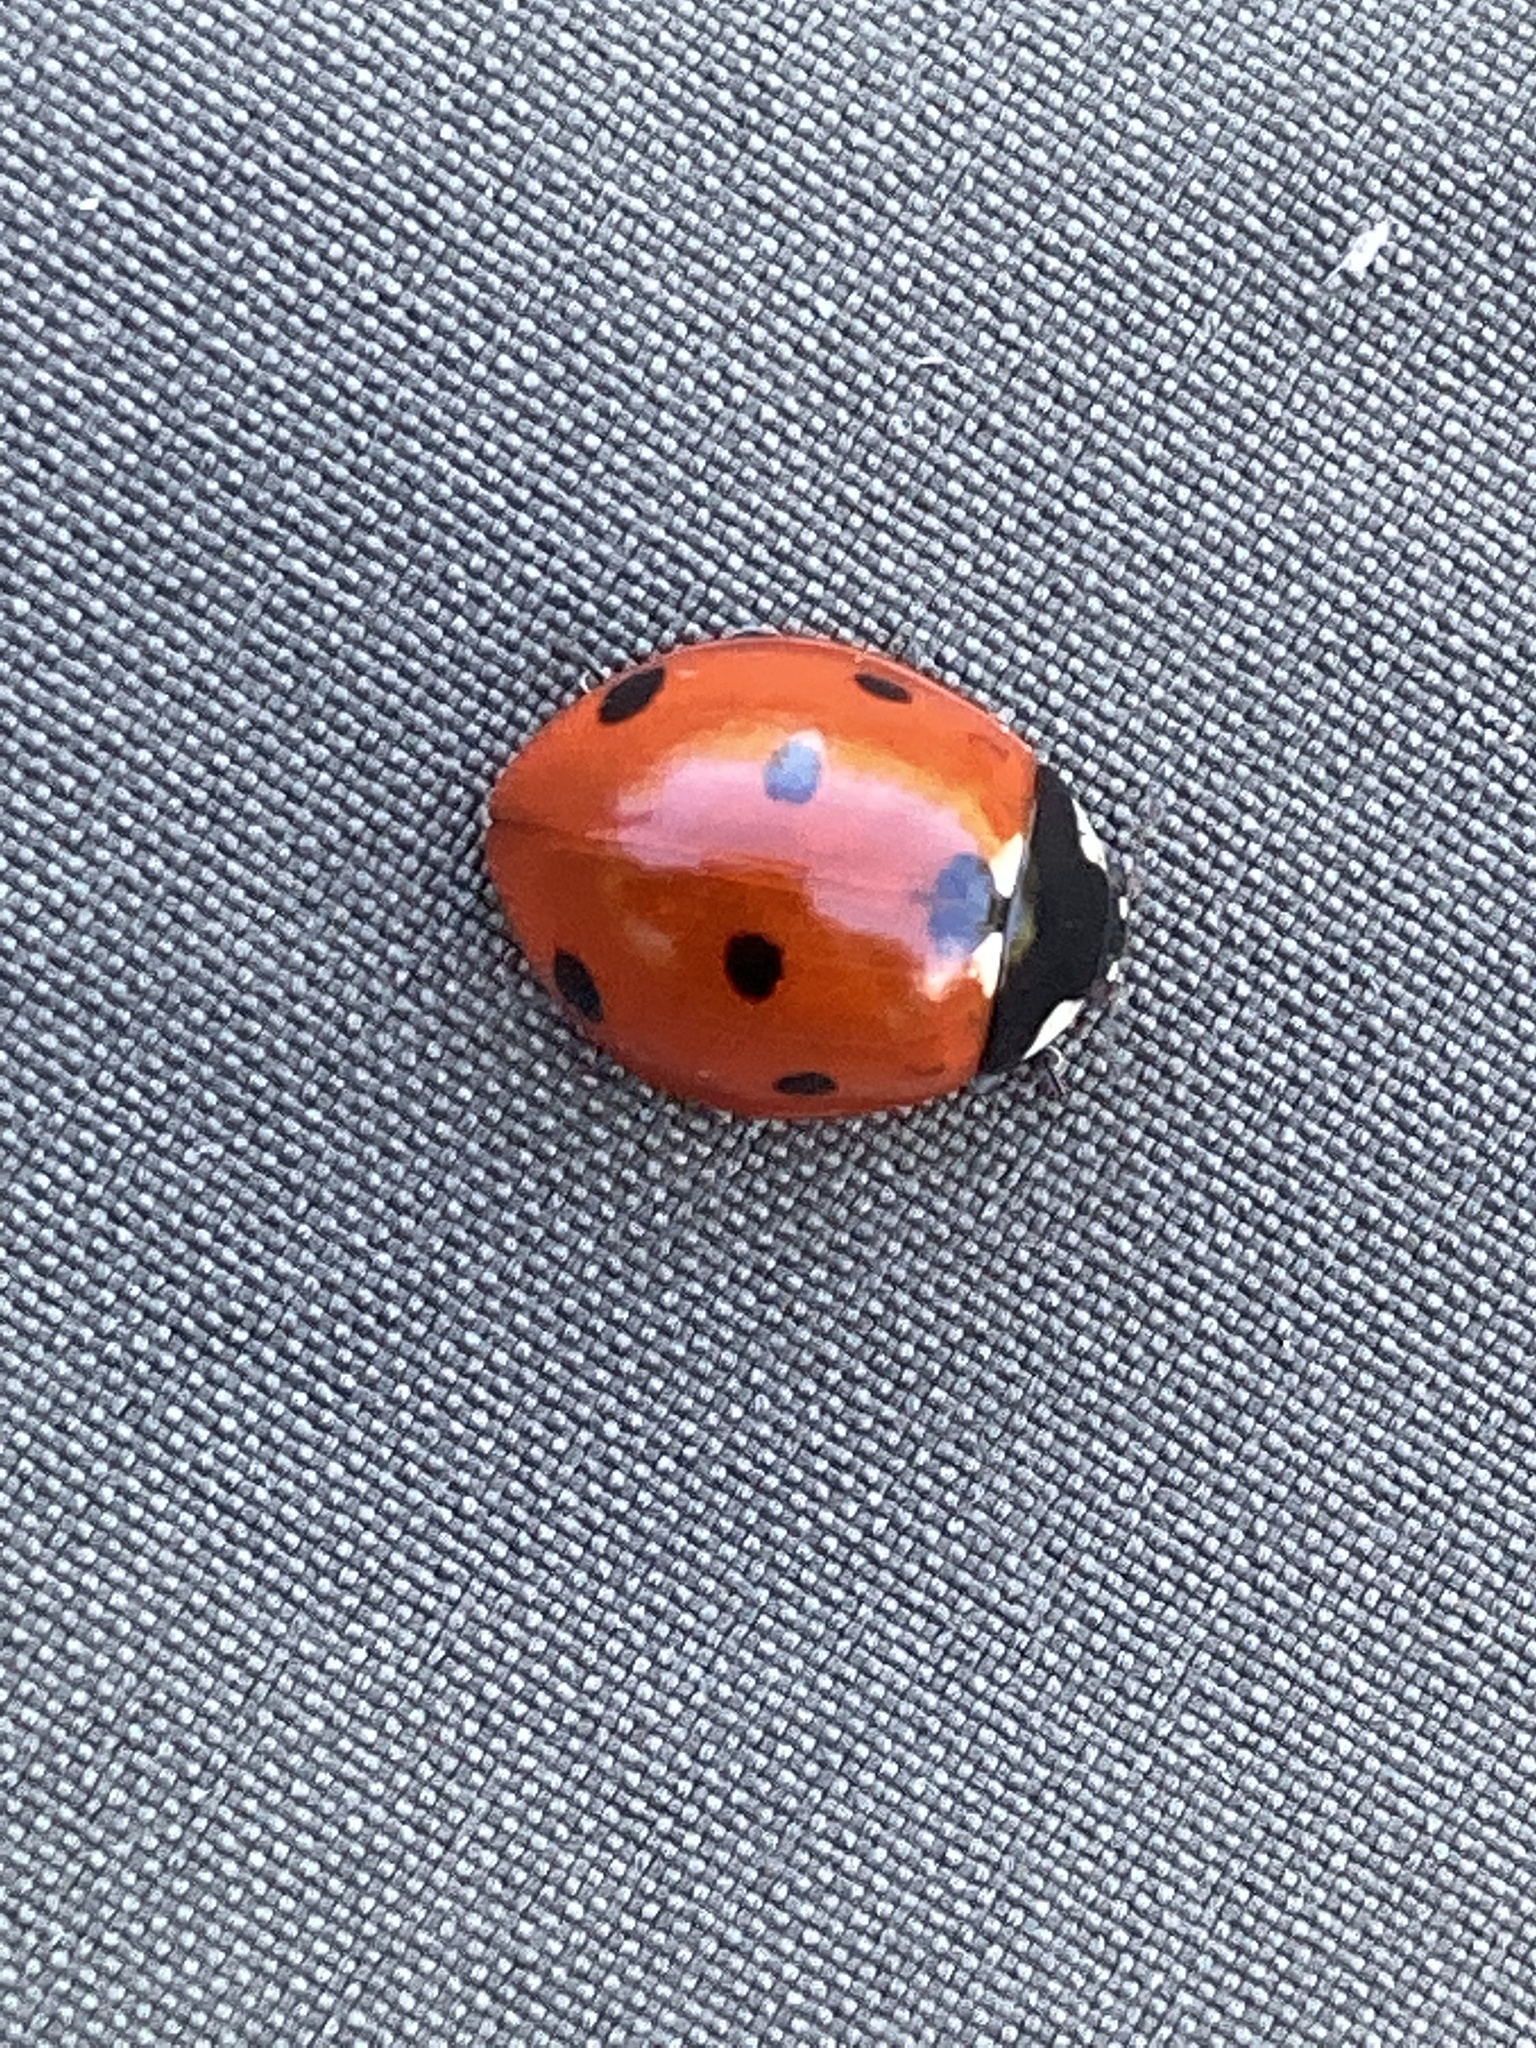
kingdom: Animalia
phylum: Arthropoda
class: Insecta
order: Coleoptera
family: Coccinellidae
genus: Coccinella
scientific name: Coccinella septempunctata
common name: Sevenspotted lady beetle
